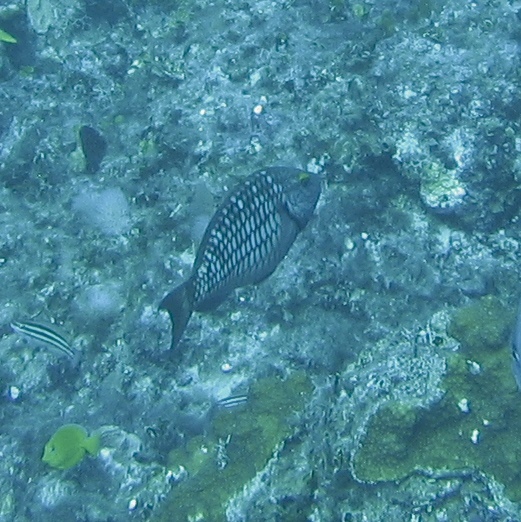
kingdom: Animalia
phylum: Chordata
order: Perciformes
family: Scaridae
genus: Sparisoma
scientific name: Sparisoma viride
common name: Stoplight parrotfish
